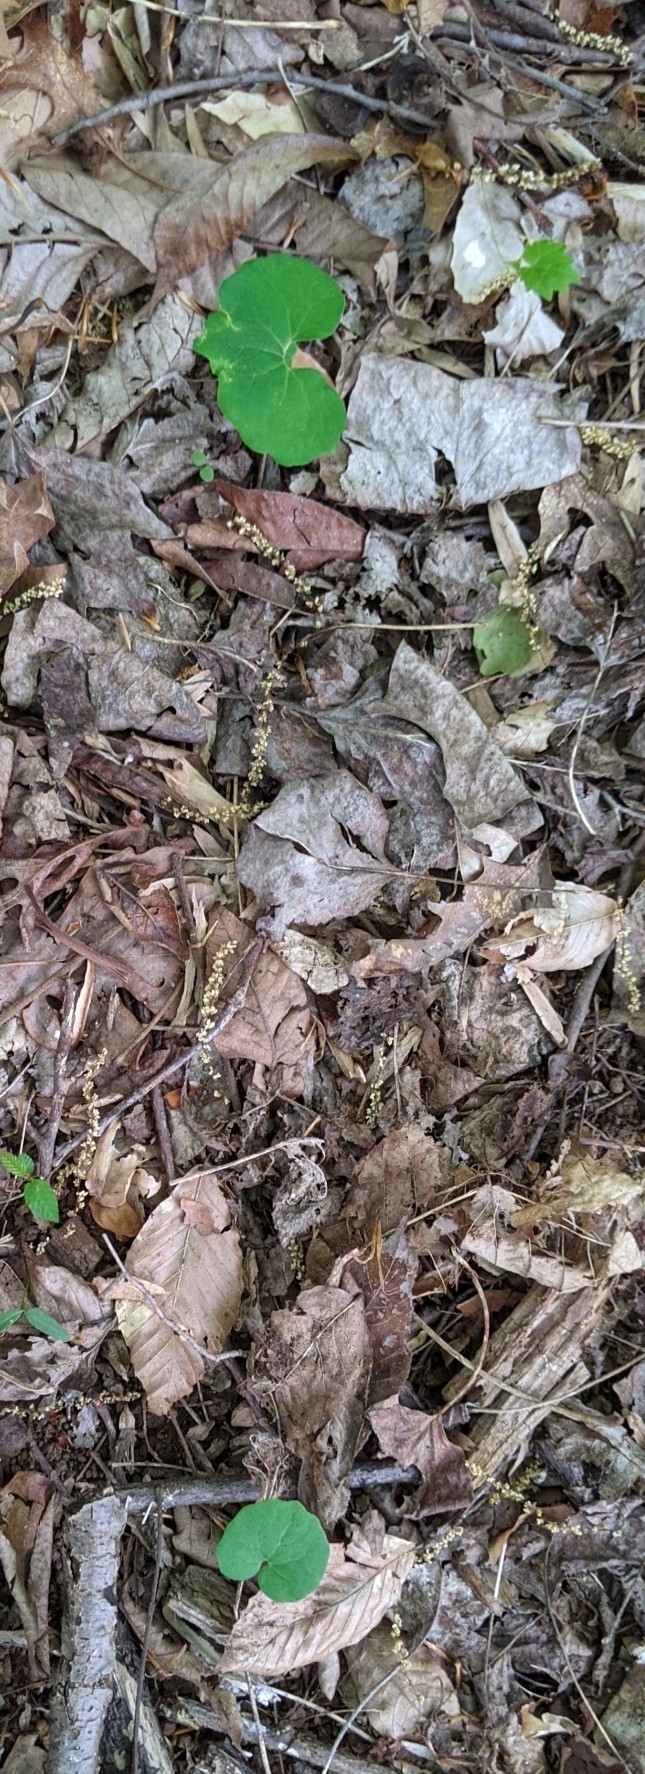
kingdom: Plantae
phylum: Tracheophyta
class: Magnoliopsida
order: Ranunculales
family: Papaveraceae
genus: Sanguinaria
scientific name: Sanguinaria canadensis
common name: Bloodroot
